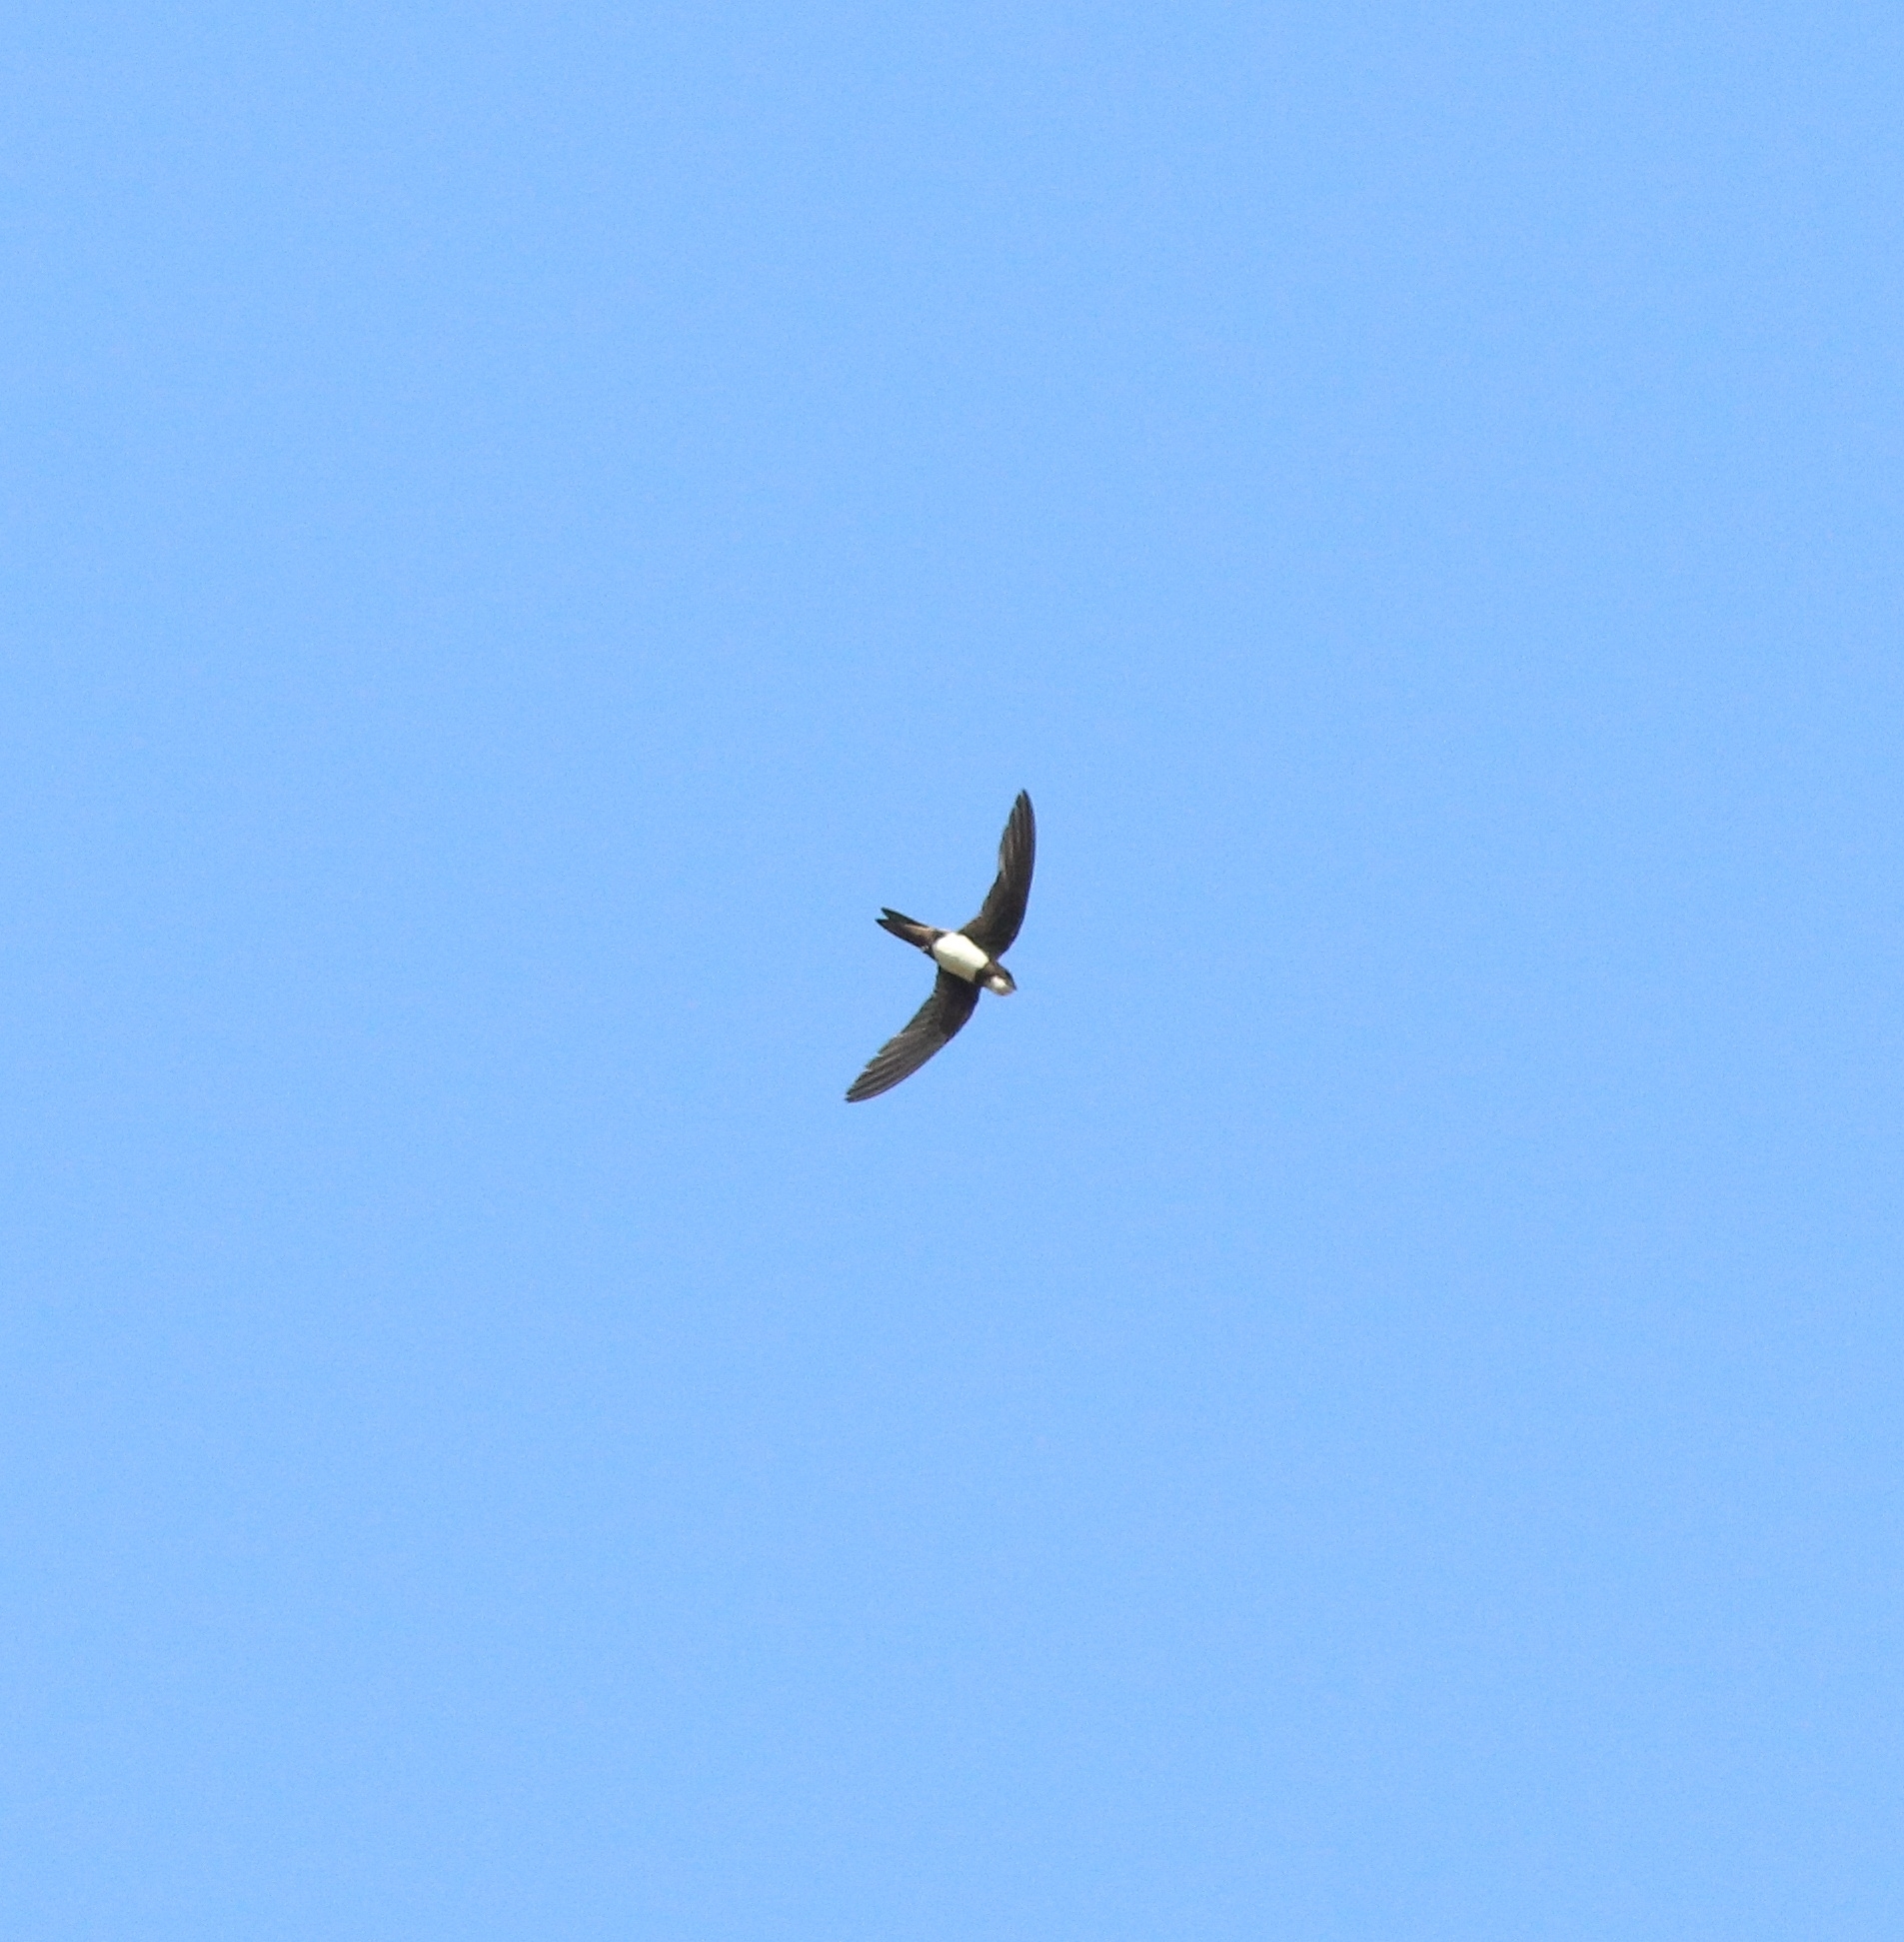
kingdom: Animalia
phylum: Chordata
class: Aves
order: Apodiformes
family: Apodidae
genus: Tachymarptis
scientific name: Tachymarptis melba
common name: Alpine swift
